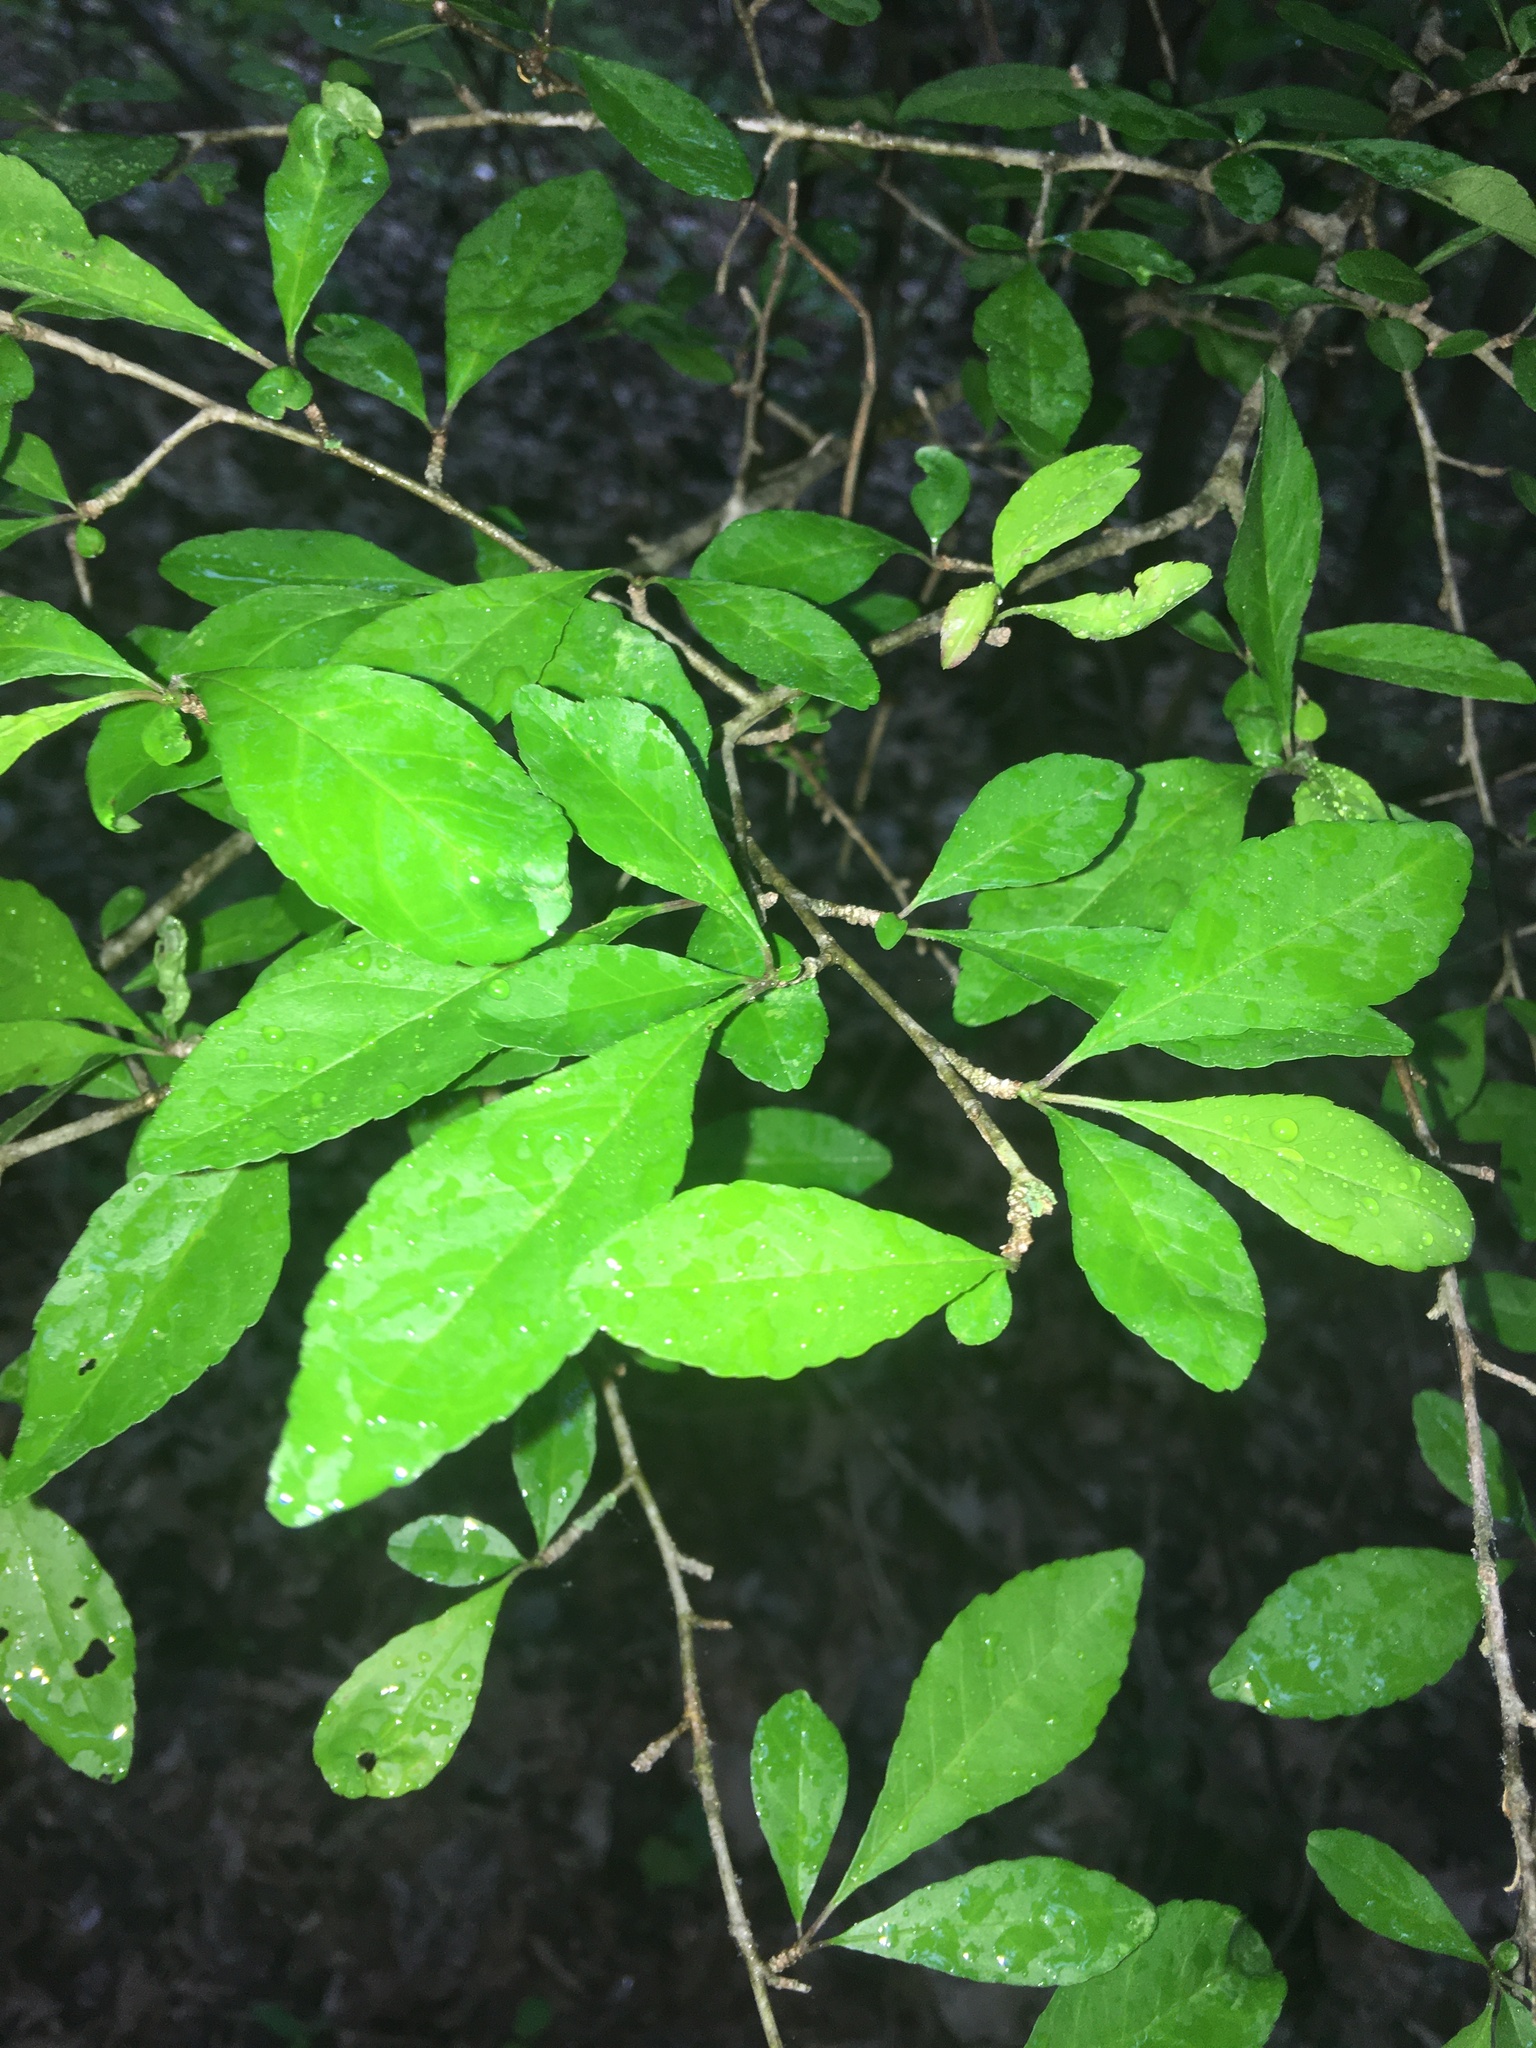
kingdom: Plantae
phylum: Tracheophyta
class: Magnoliopsida
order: Aquifoliales
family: Aquifoliaceae
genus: Ilex
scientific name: Ilex decidua
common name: Possum-haw
